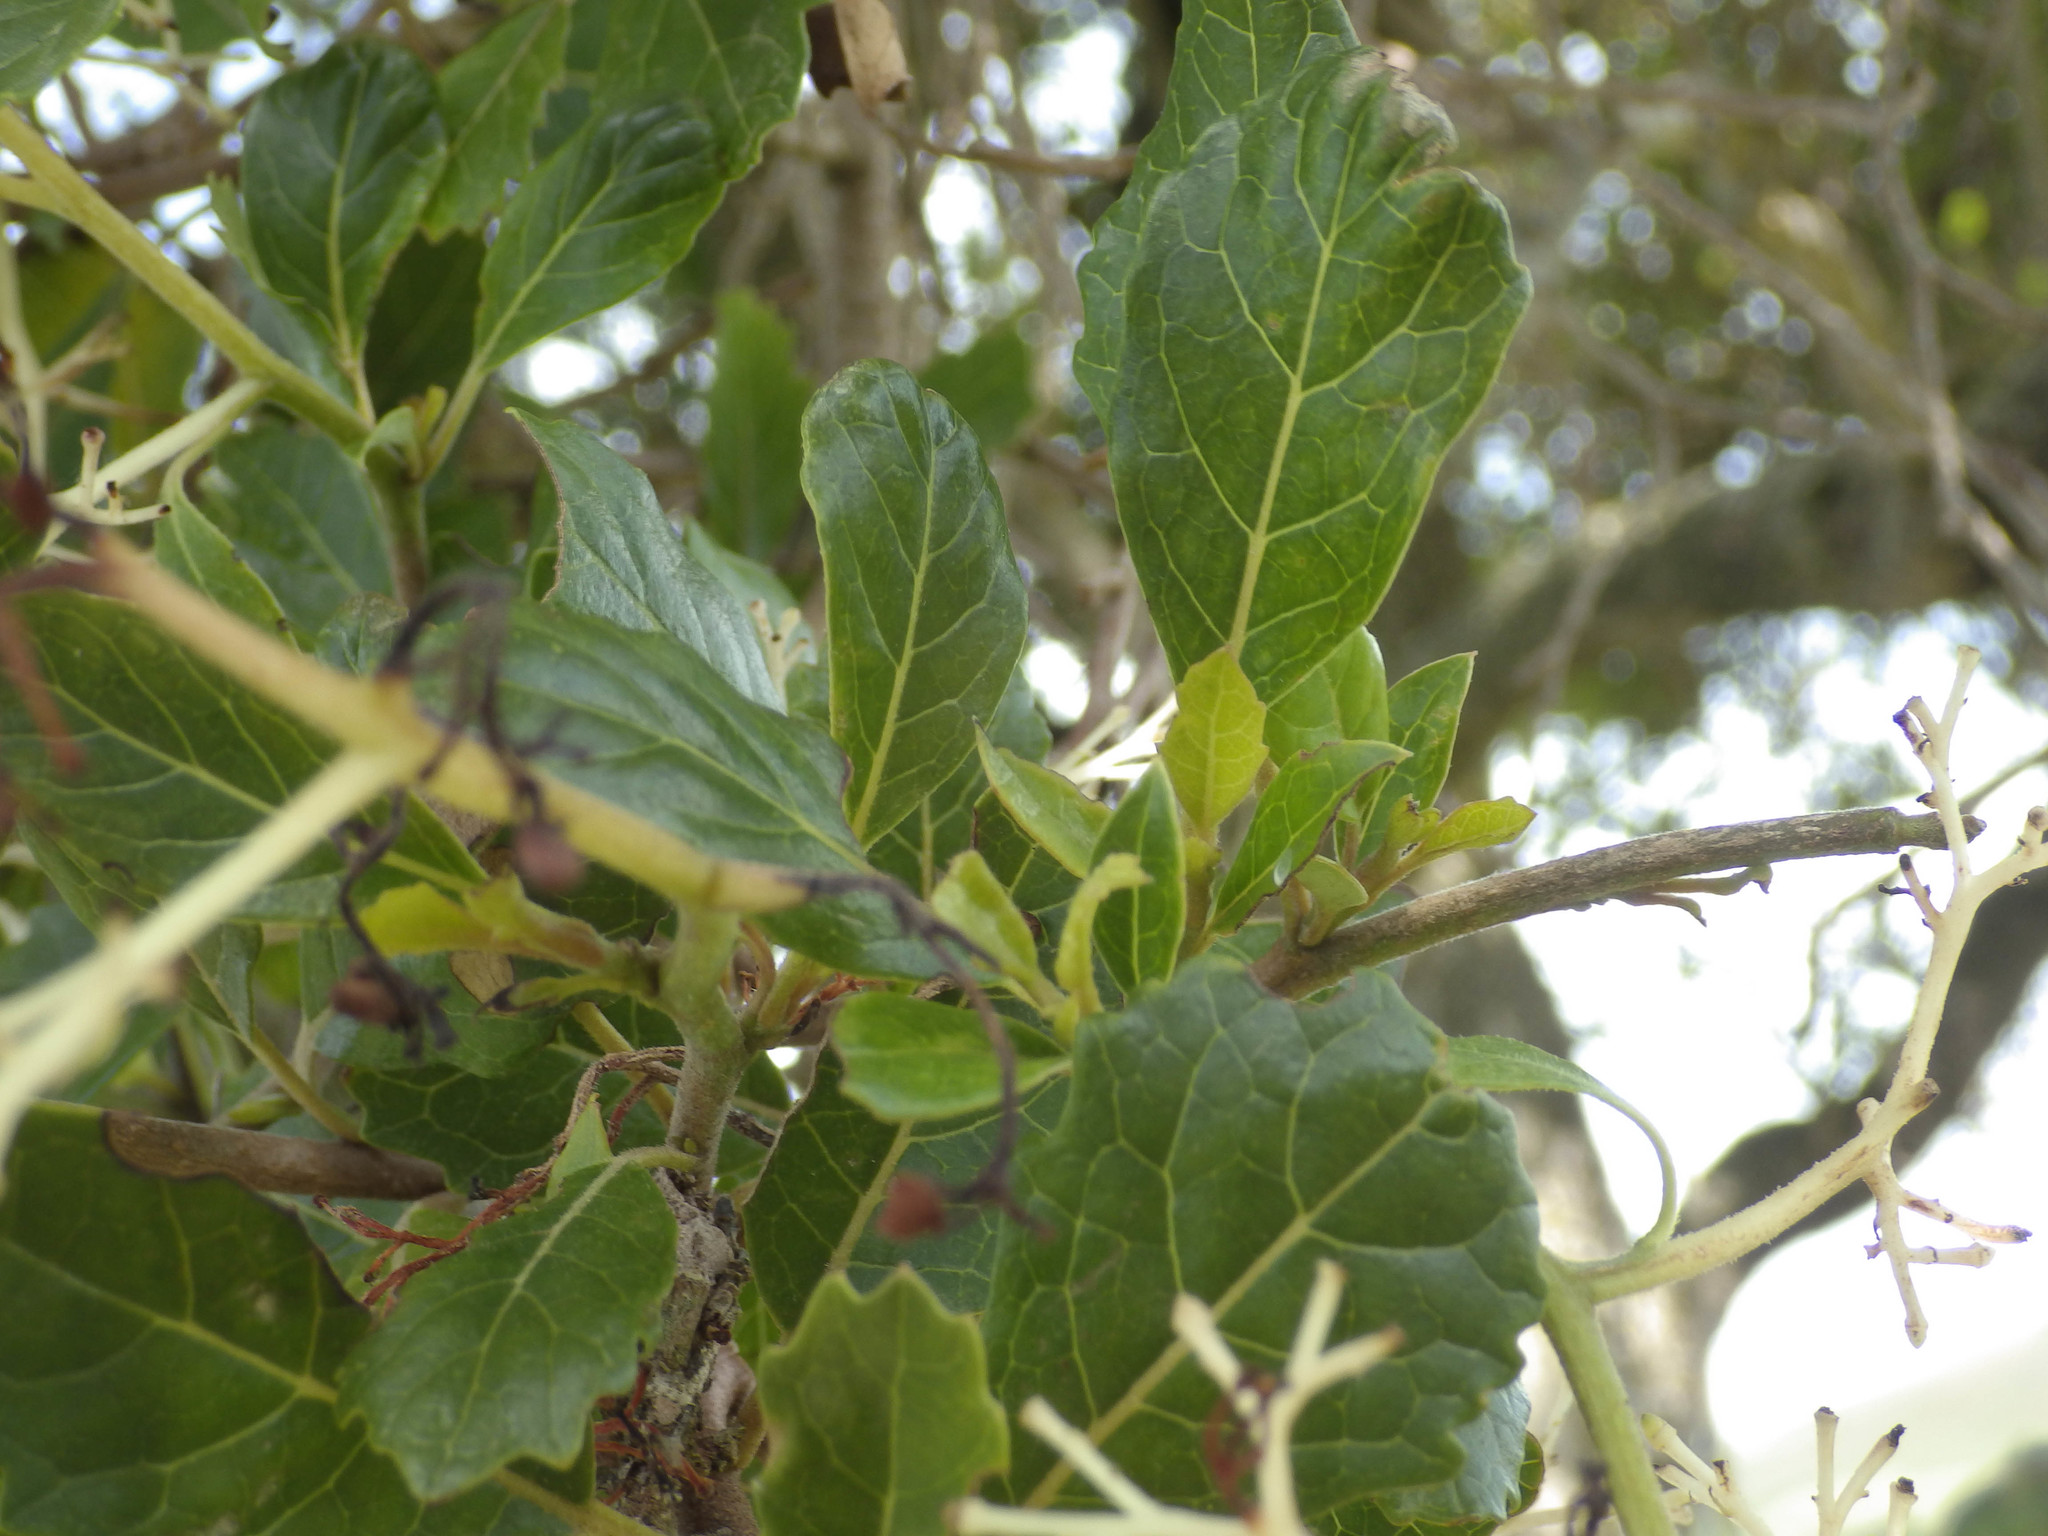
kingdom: Plantae
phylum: Tracheophyta
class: Magnoliopsida
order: Apiales
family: Pennantiaceae
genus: Pennantia
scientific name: Pennantia corymbosa
